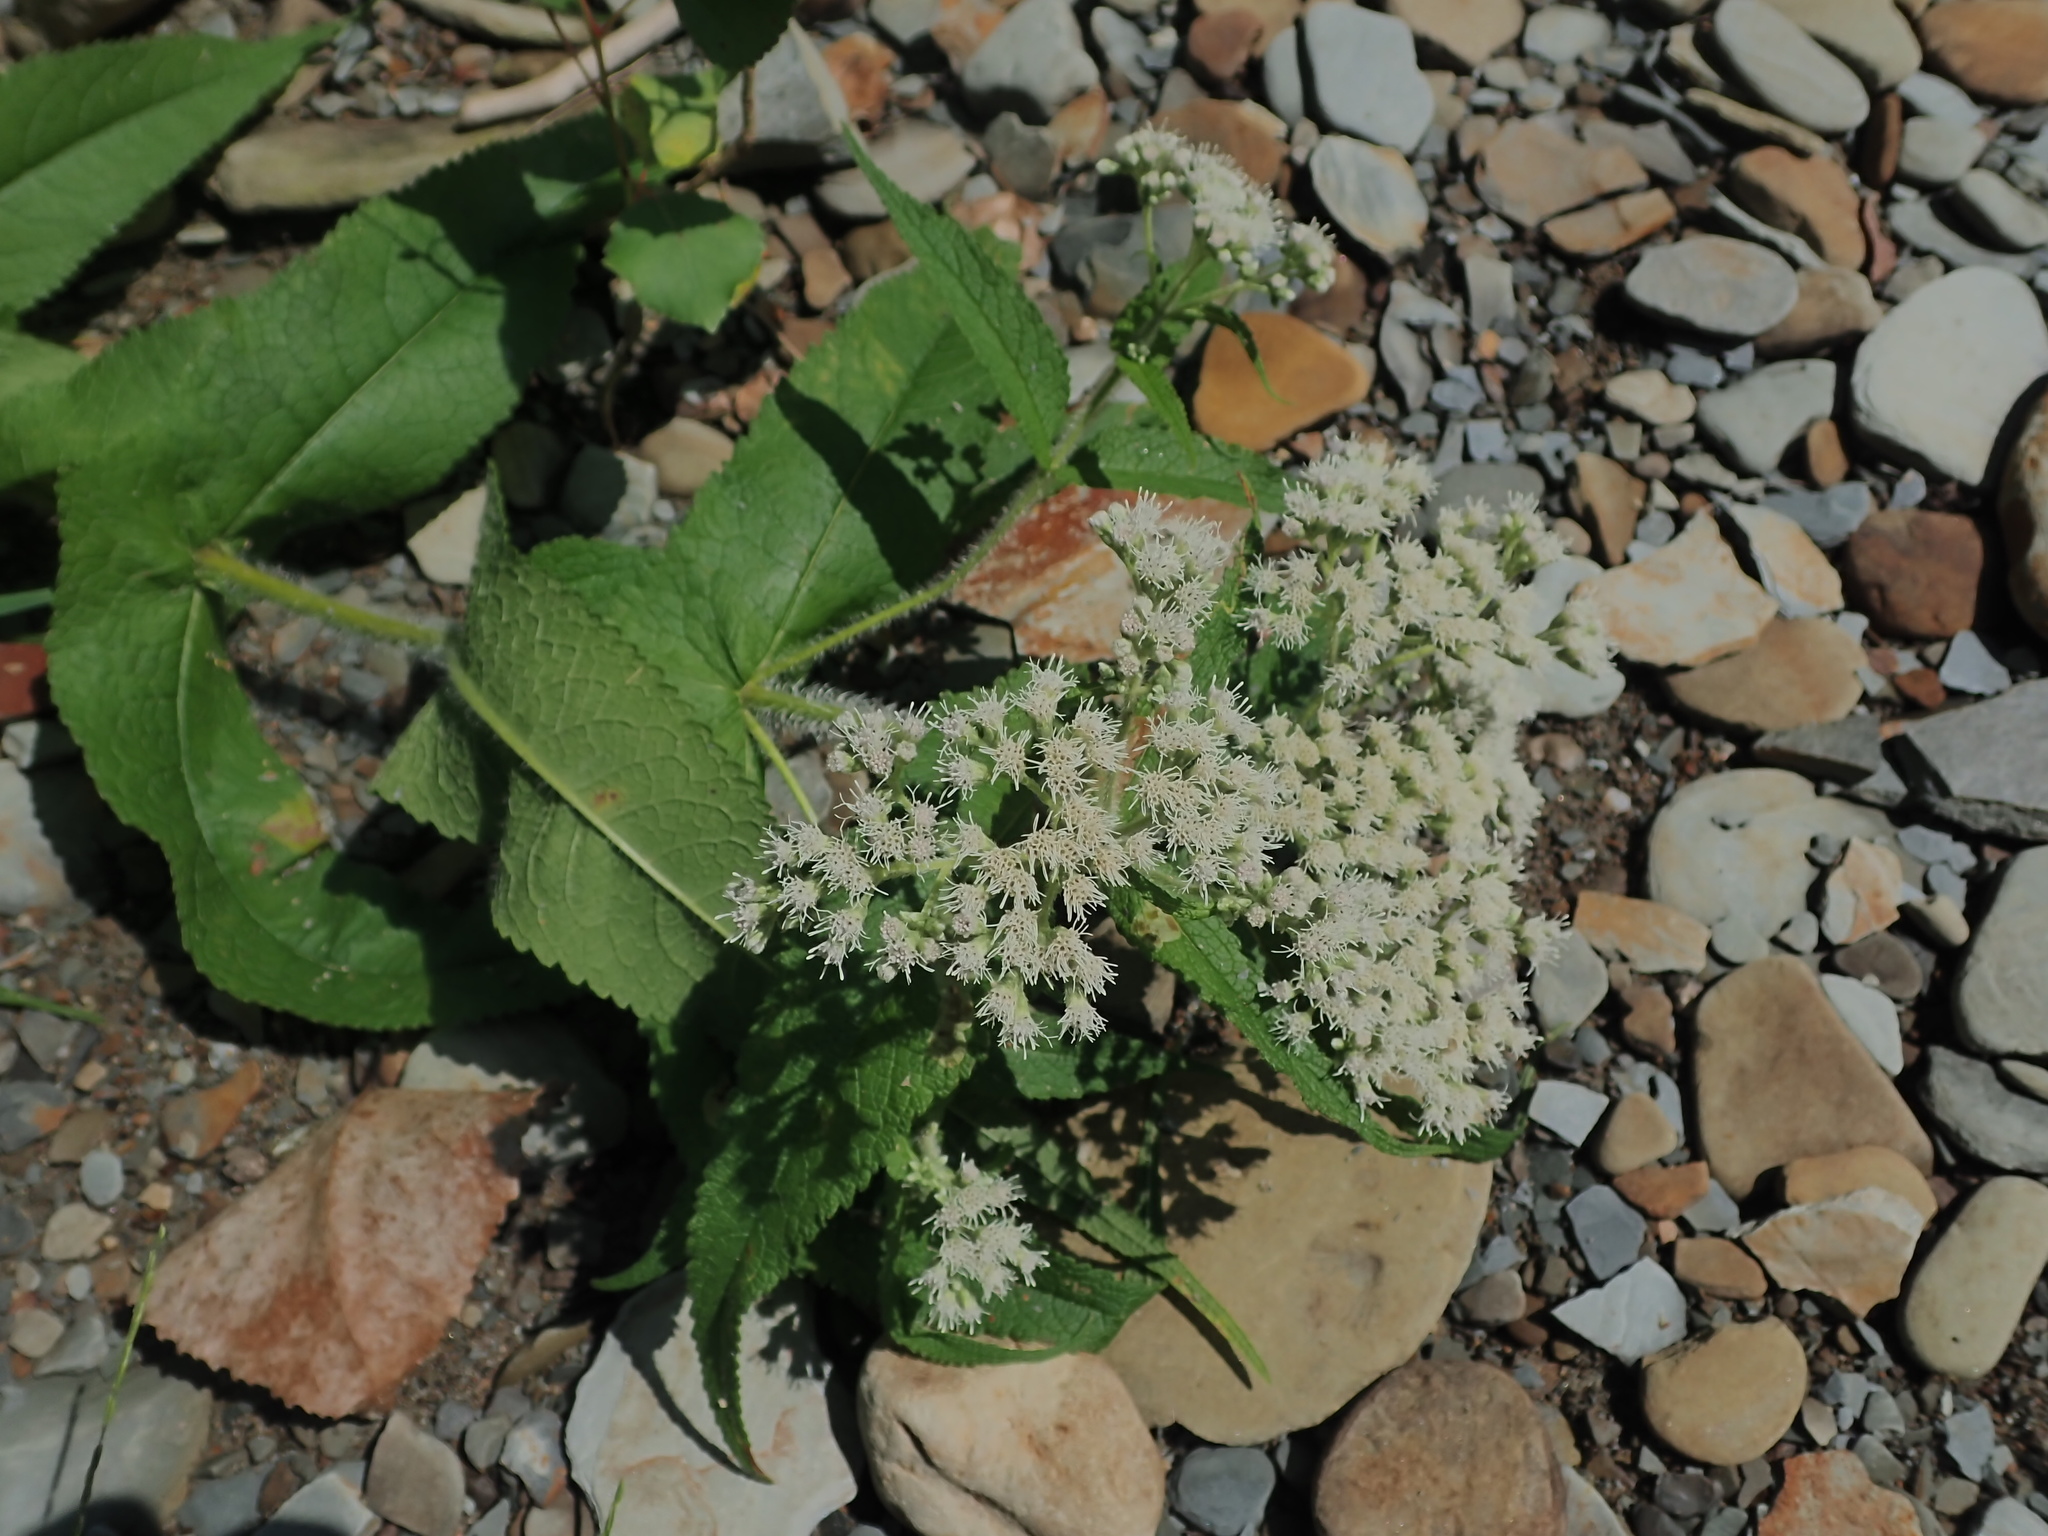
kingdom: Plantae
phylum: Tracheophyta
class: Magnoliopsida
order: Asterales
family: Asteraceae
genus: Eupatorium
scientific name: Eupatorium perfoliatum
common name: Boneset
